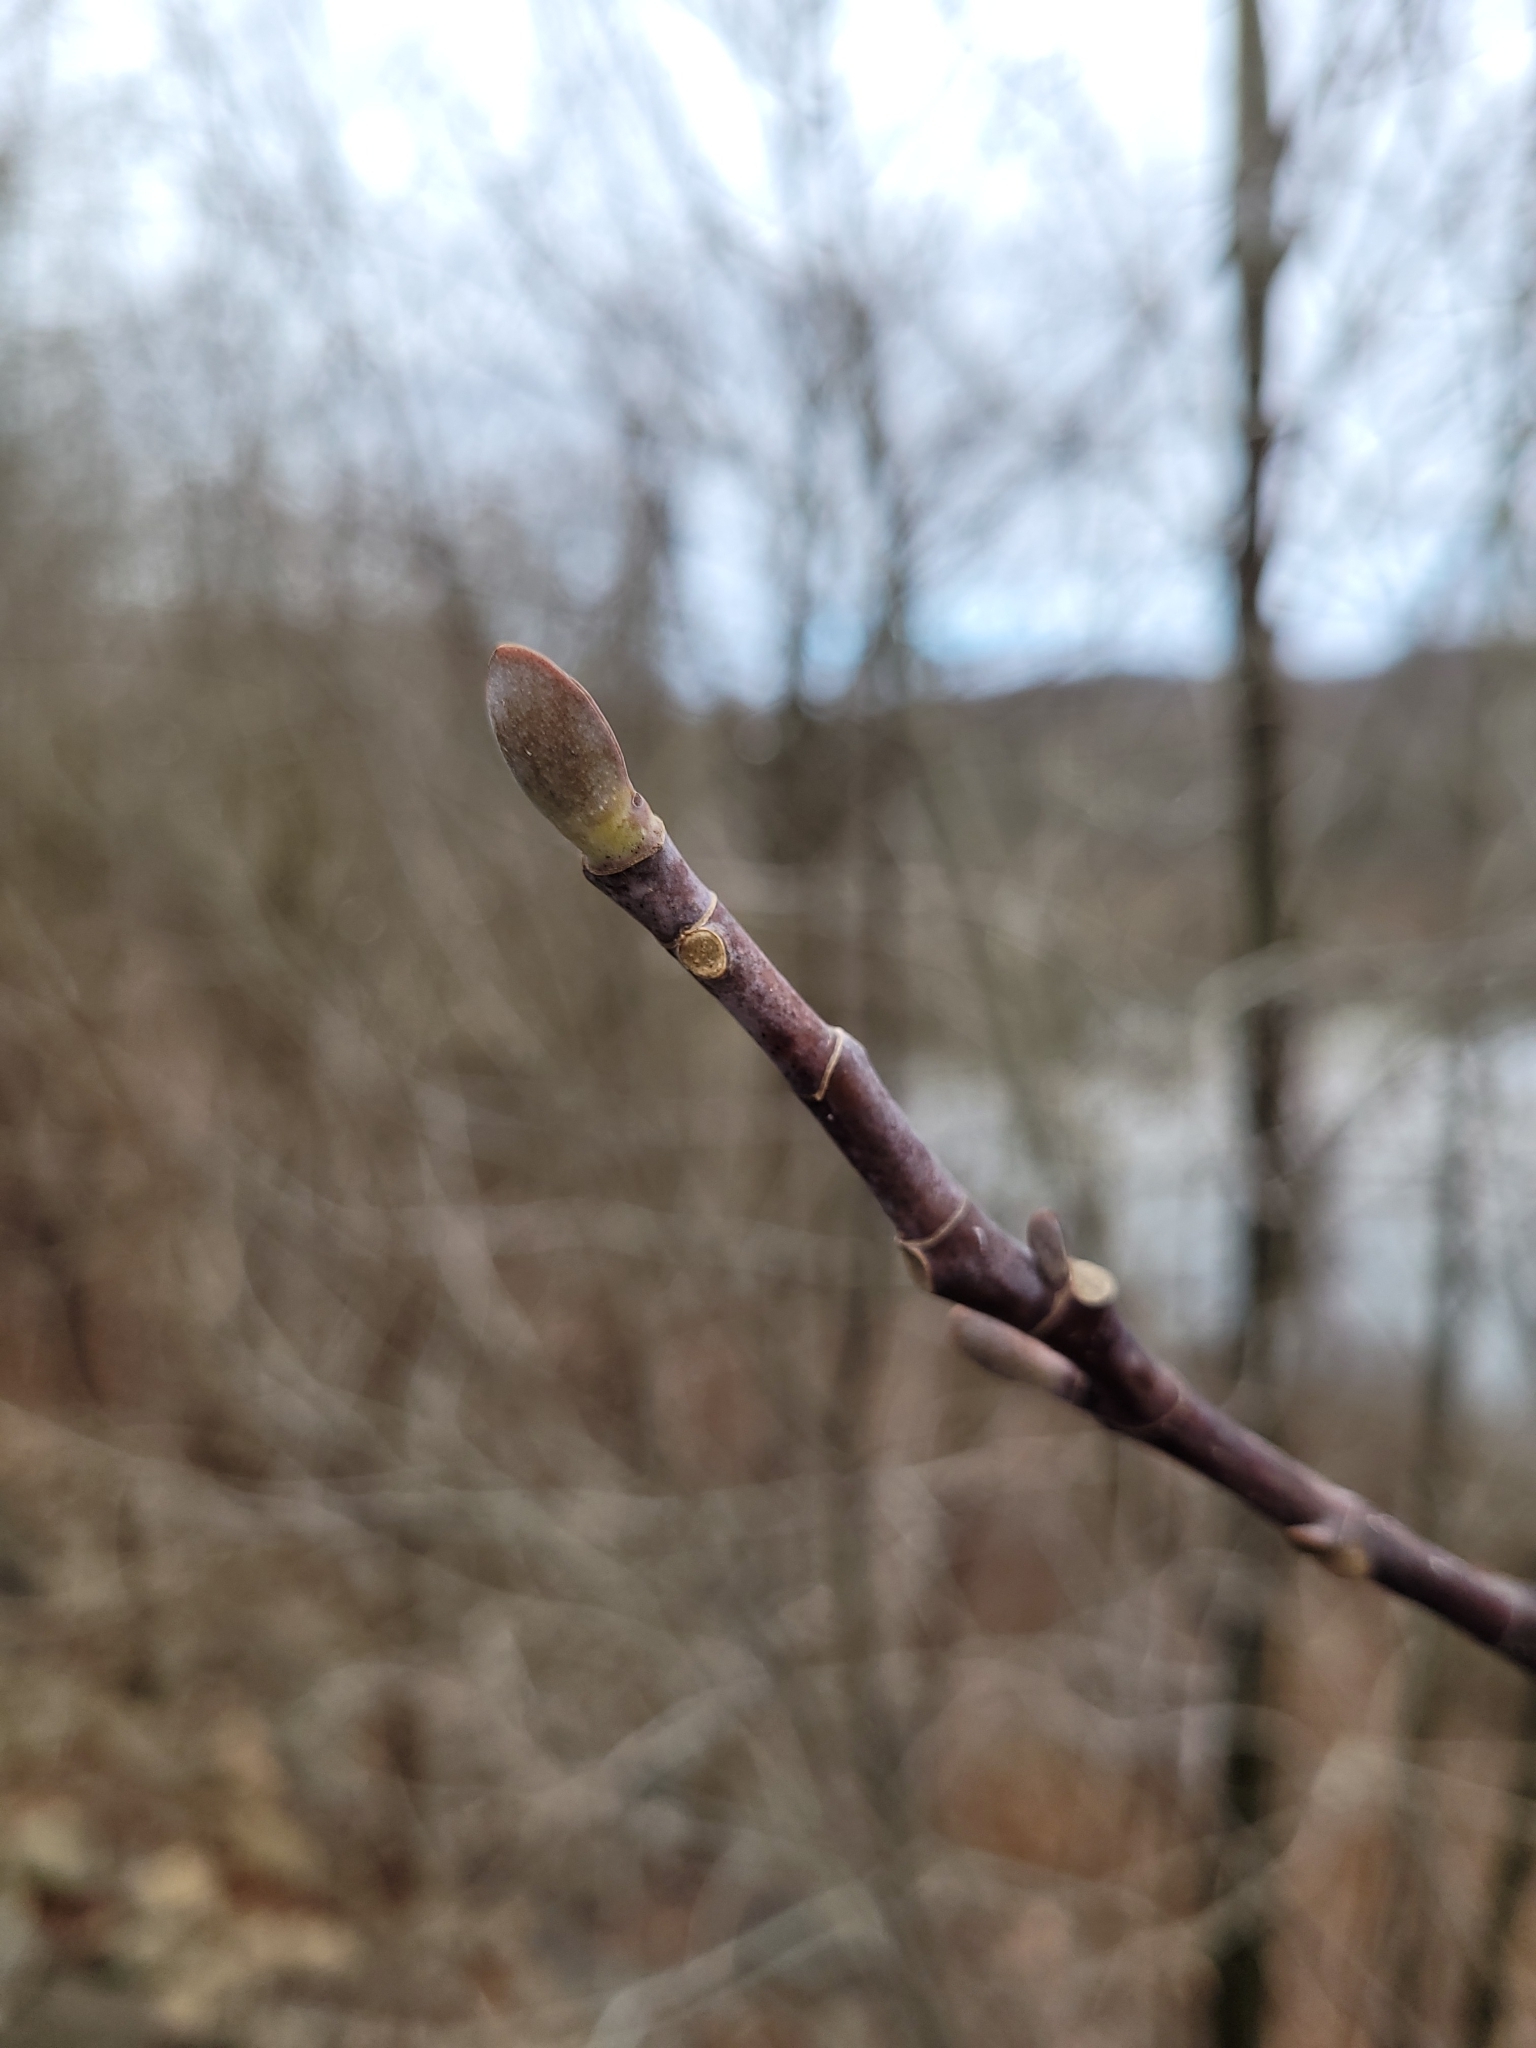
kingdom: Plantae
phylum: Tracheophyta
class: Magnoliopsida
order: Magnoliales
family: Magnoliaceae
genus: Liriodendron
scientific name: Liriodendron tulipifera
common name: Tulip tree
